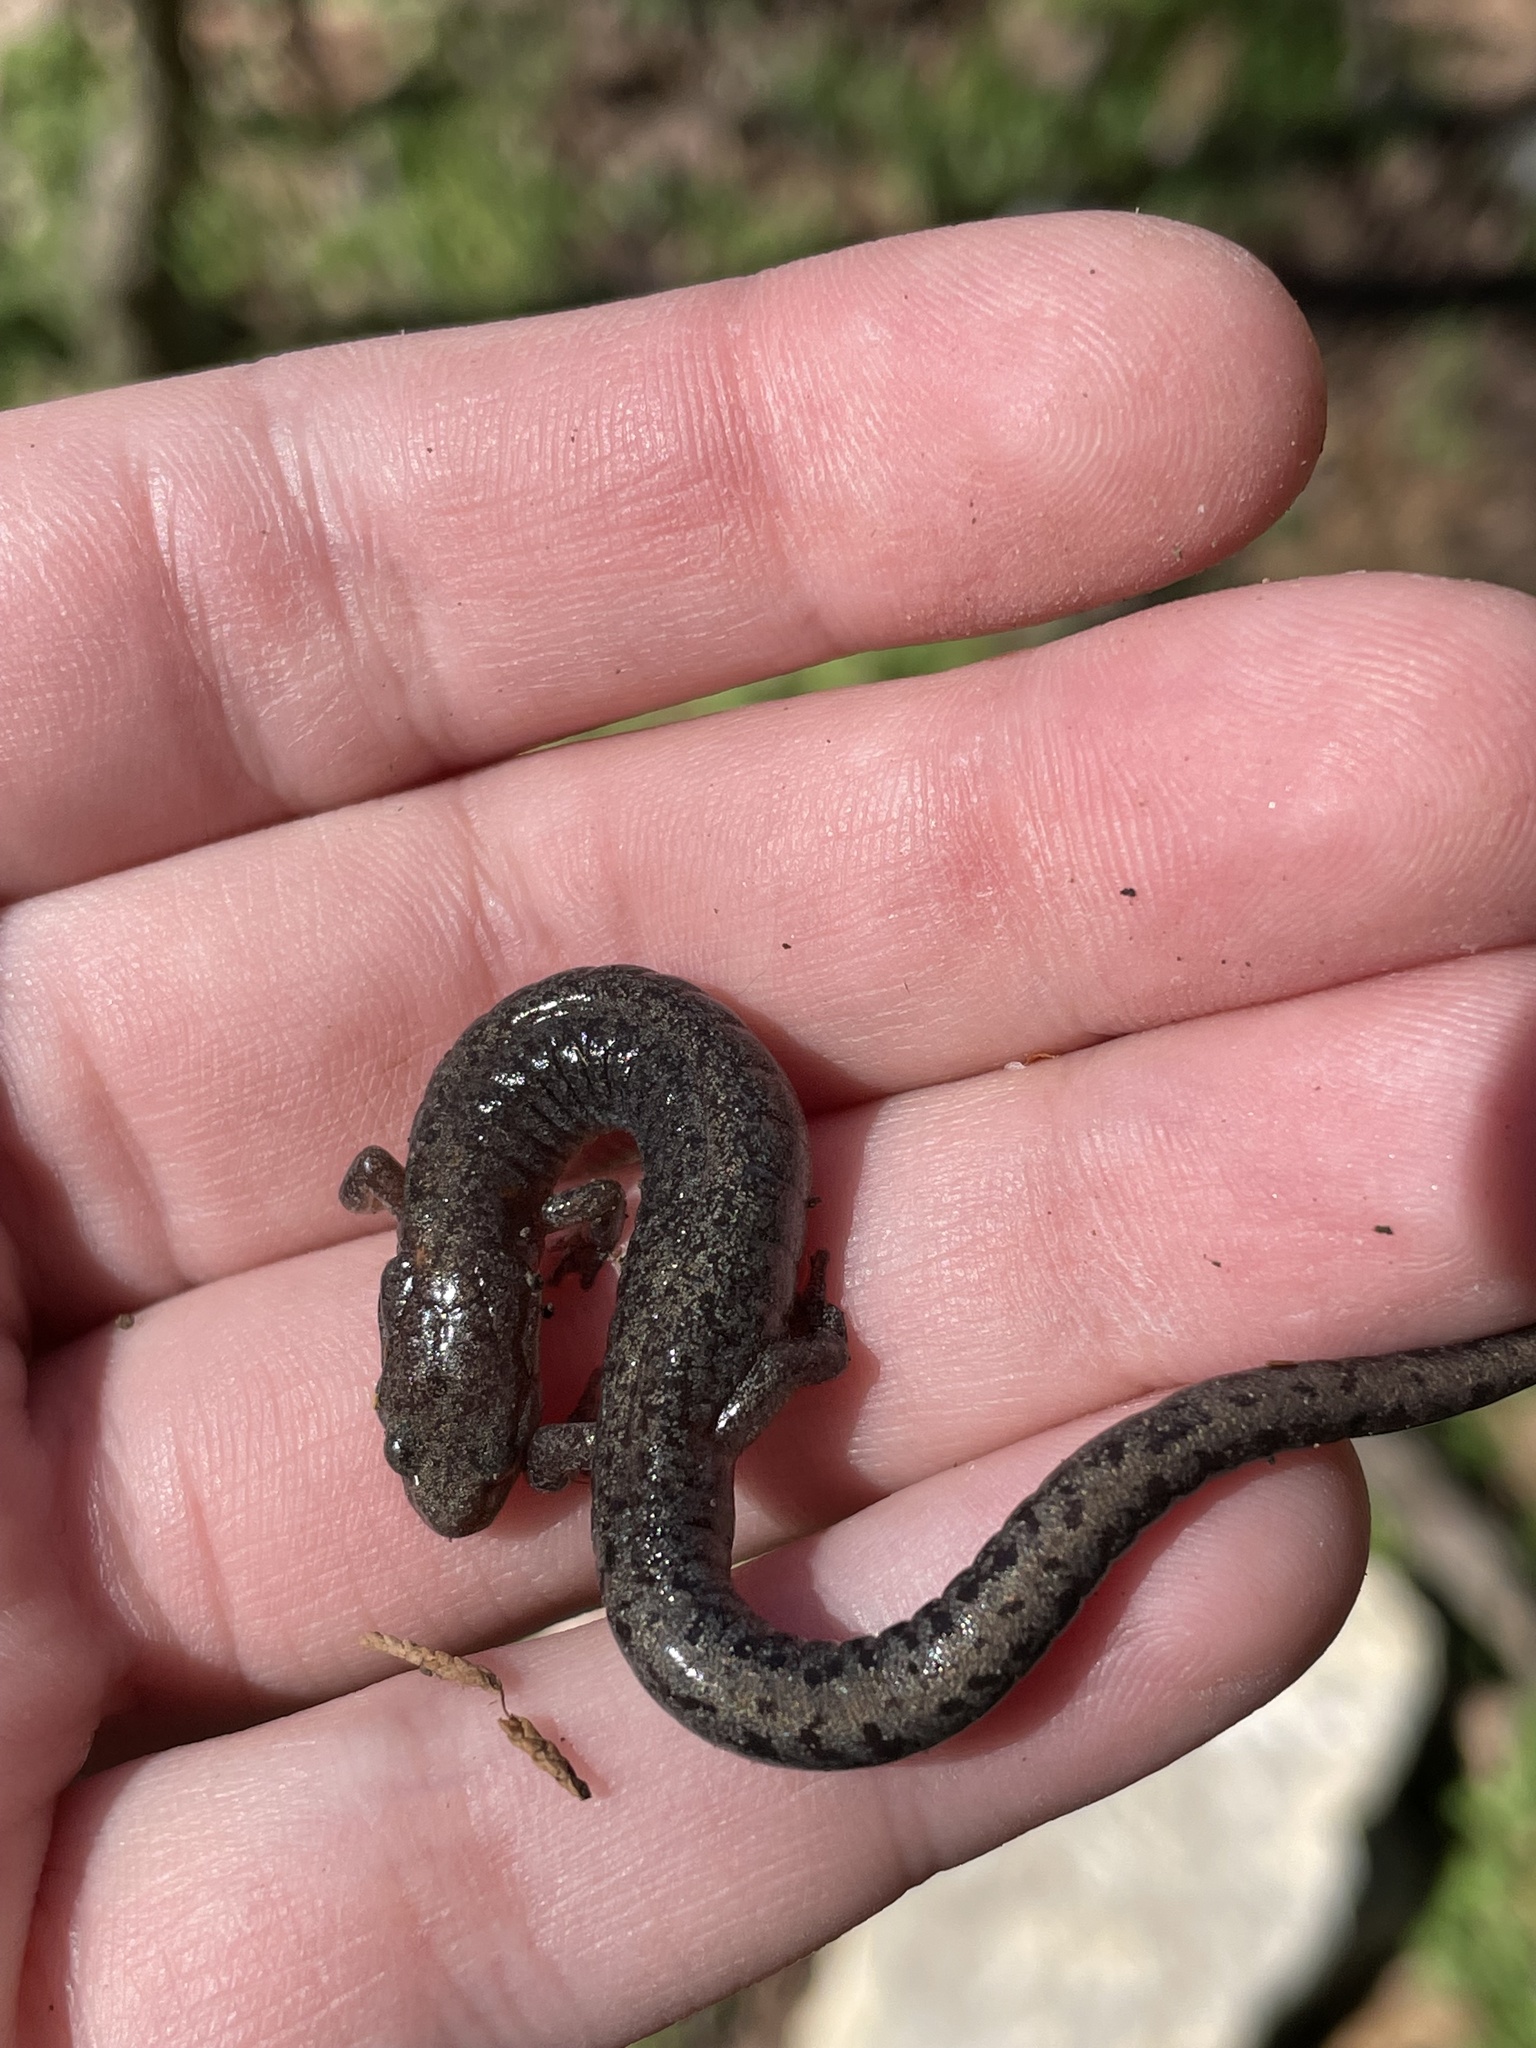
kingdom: Animalia
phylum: Chordata
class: Amphibia
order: Caudata
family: Plethodontidae
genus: Plethodon
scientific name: Plethodon dorsalis
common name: Northern zigzag salamander
